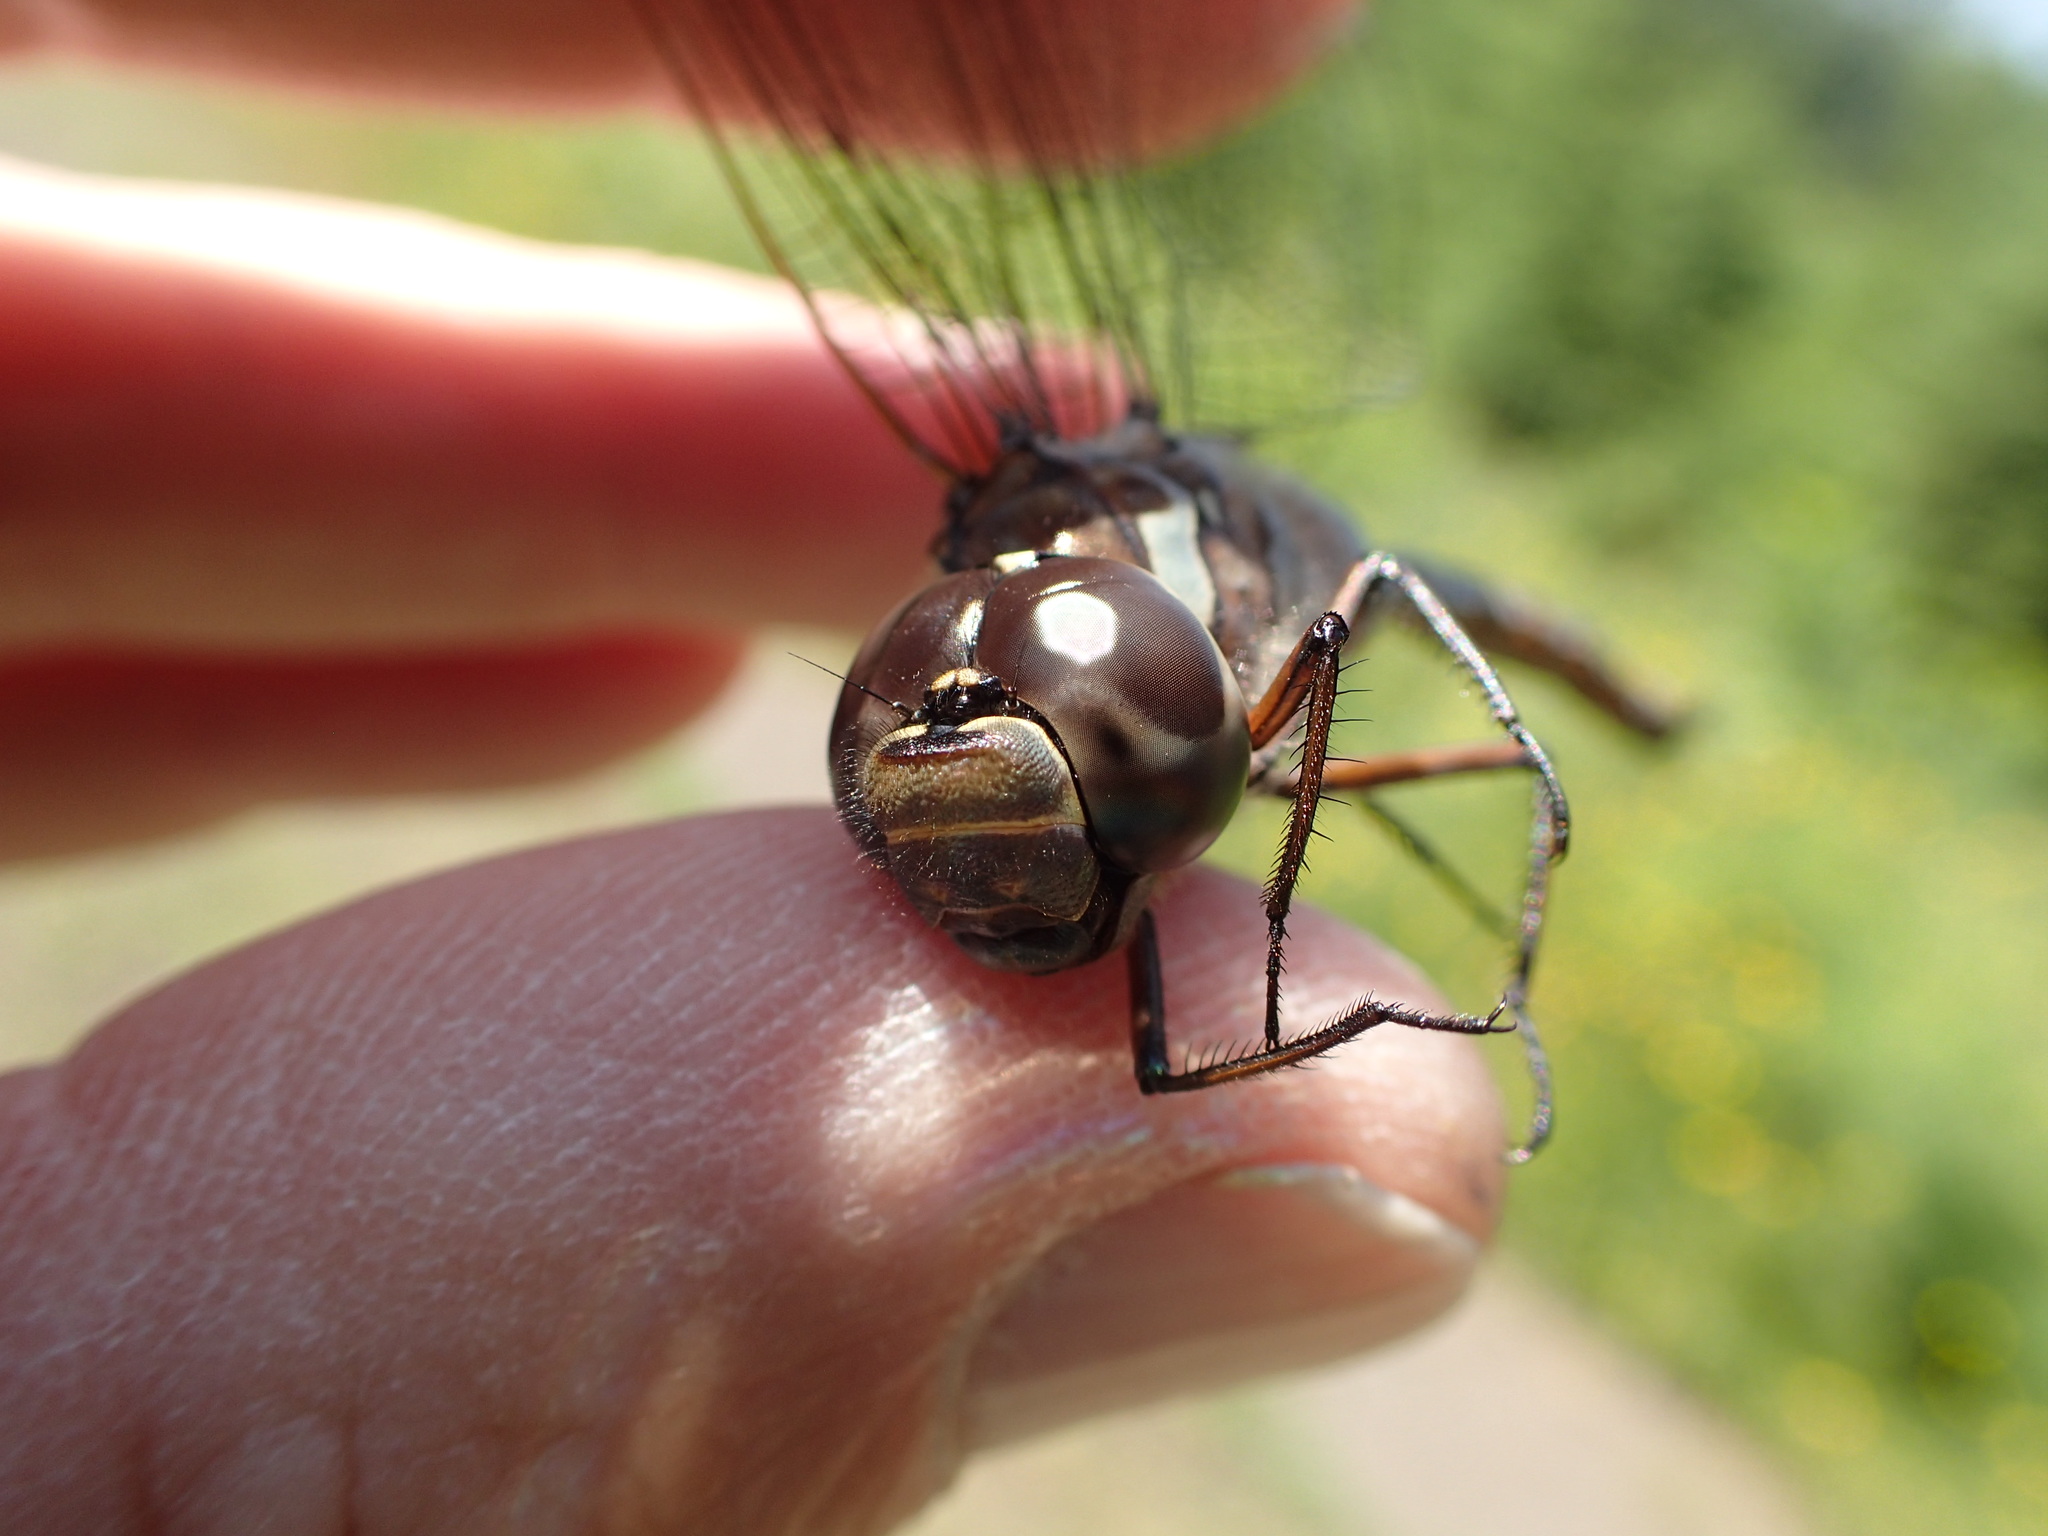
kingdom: Animalia
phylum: Arthropoda
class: Insecta
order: Odonata
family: Aeshnidae
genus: Aeshna
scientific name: Aeshna canadensis
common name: Canada darner
